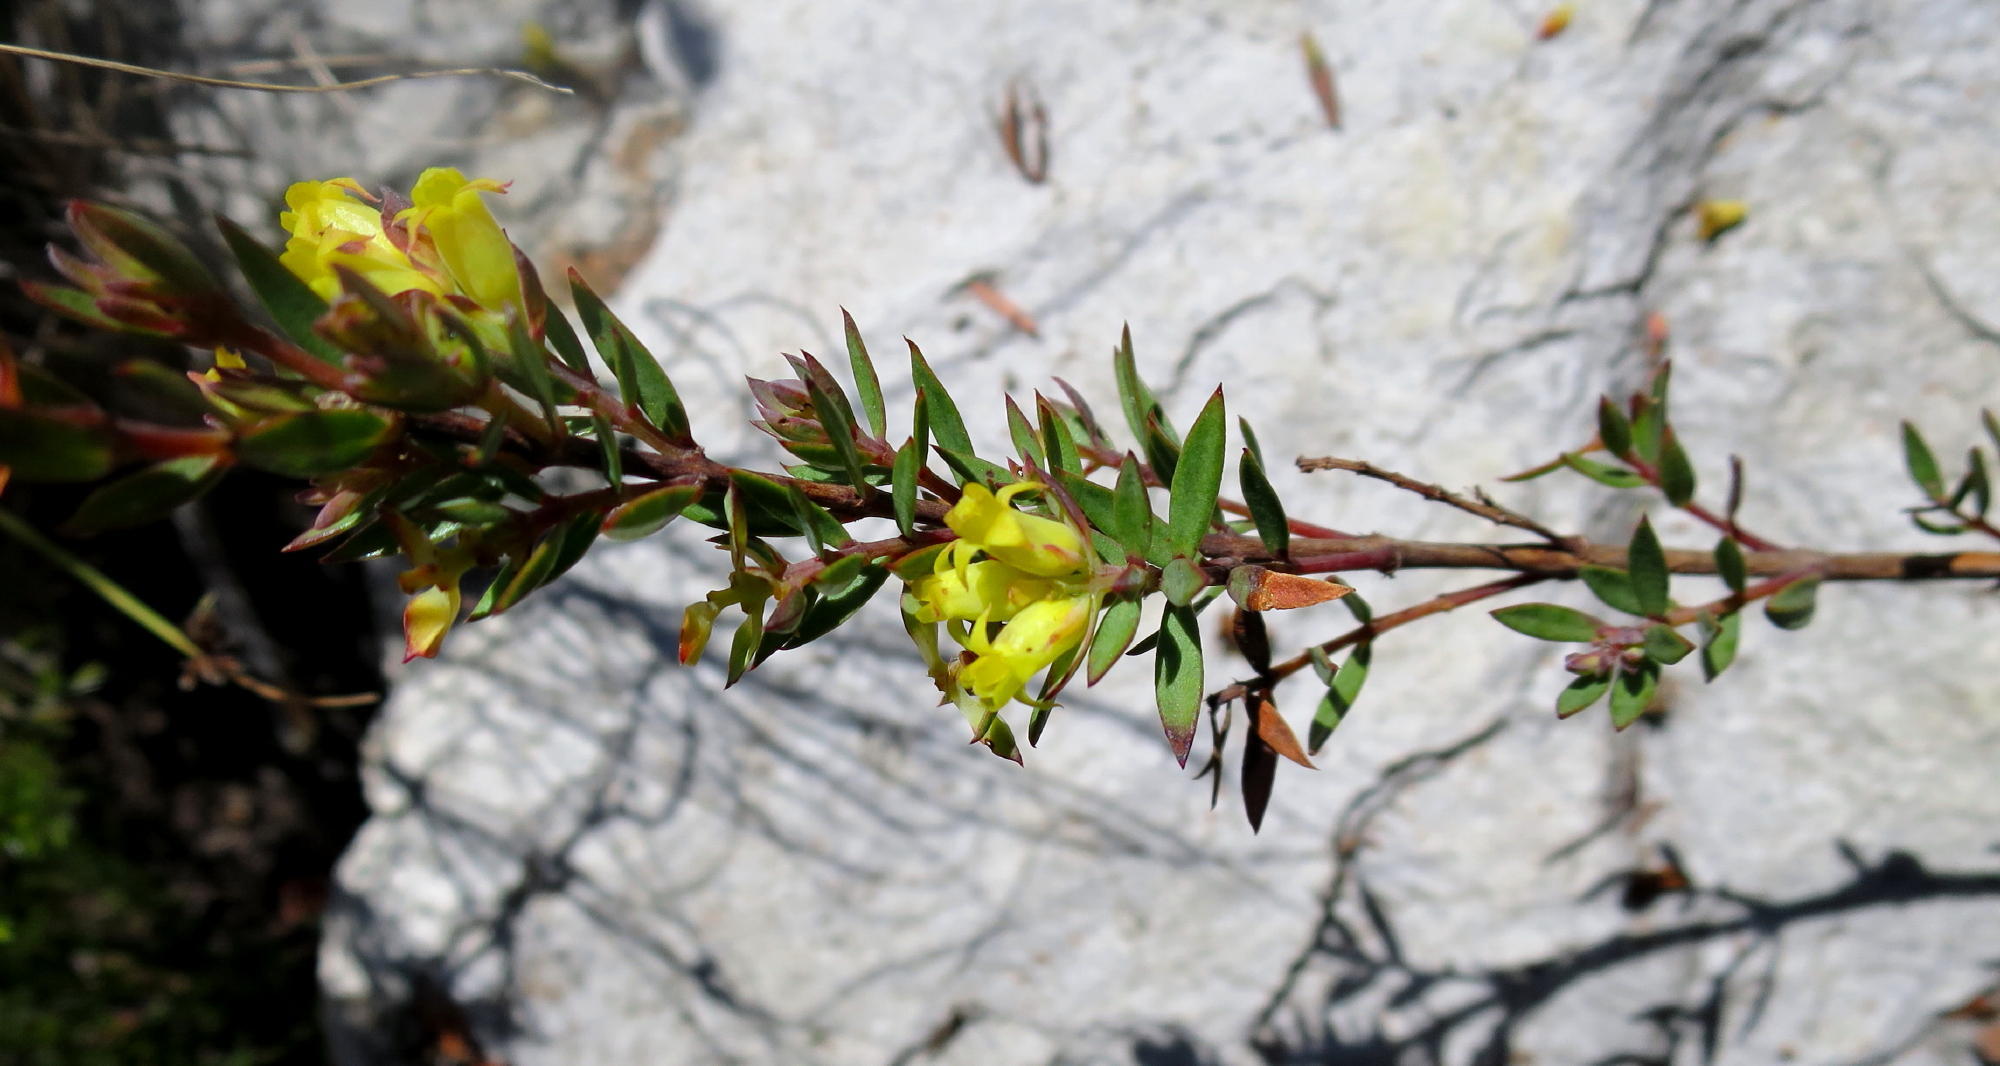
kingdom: Plantae
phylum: Tracheophyta
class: Magnoliopsida
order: Myrtales
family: Penaeaceae
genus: Penaea
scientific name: Penaea acutifolia
